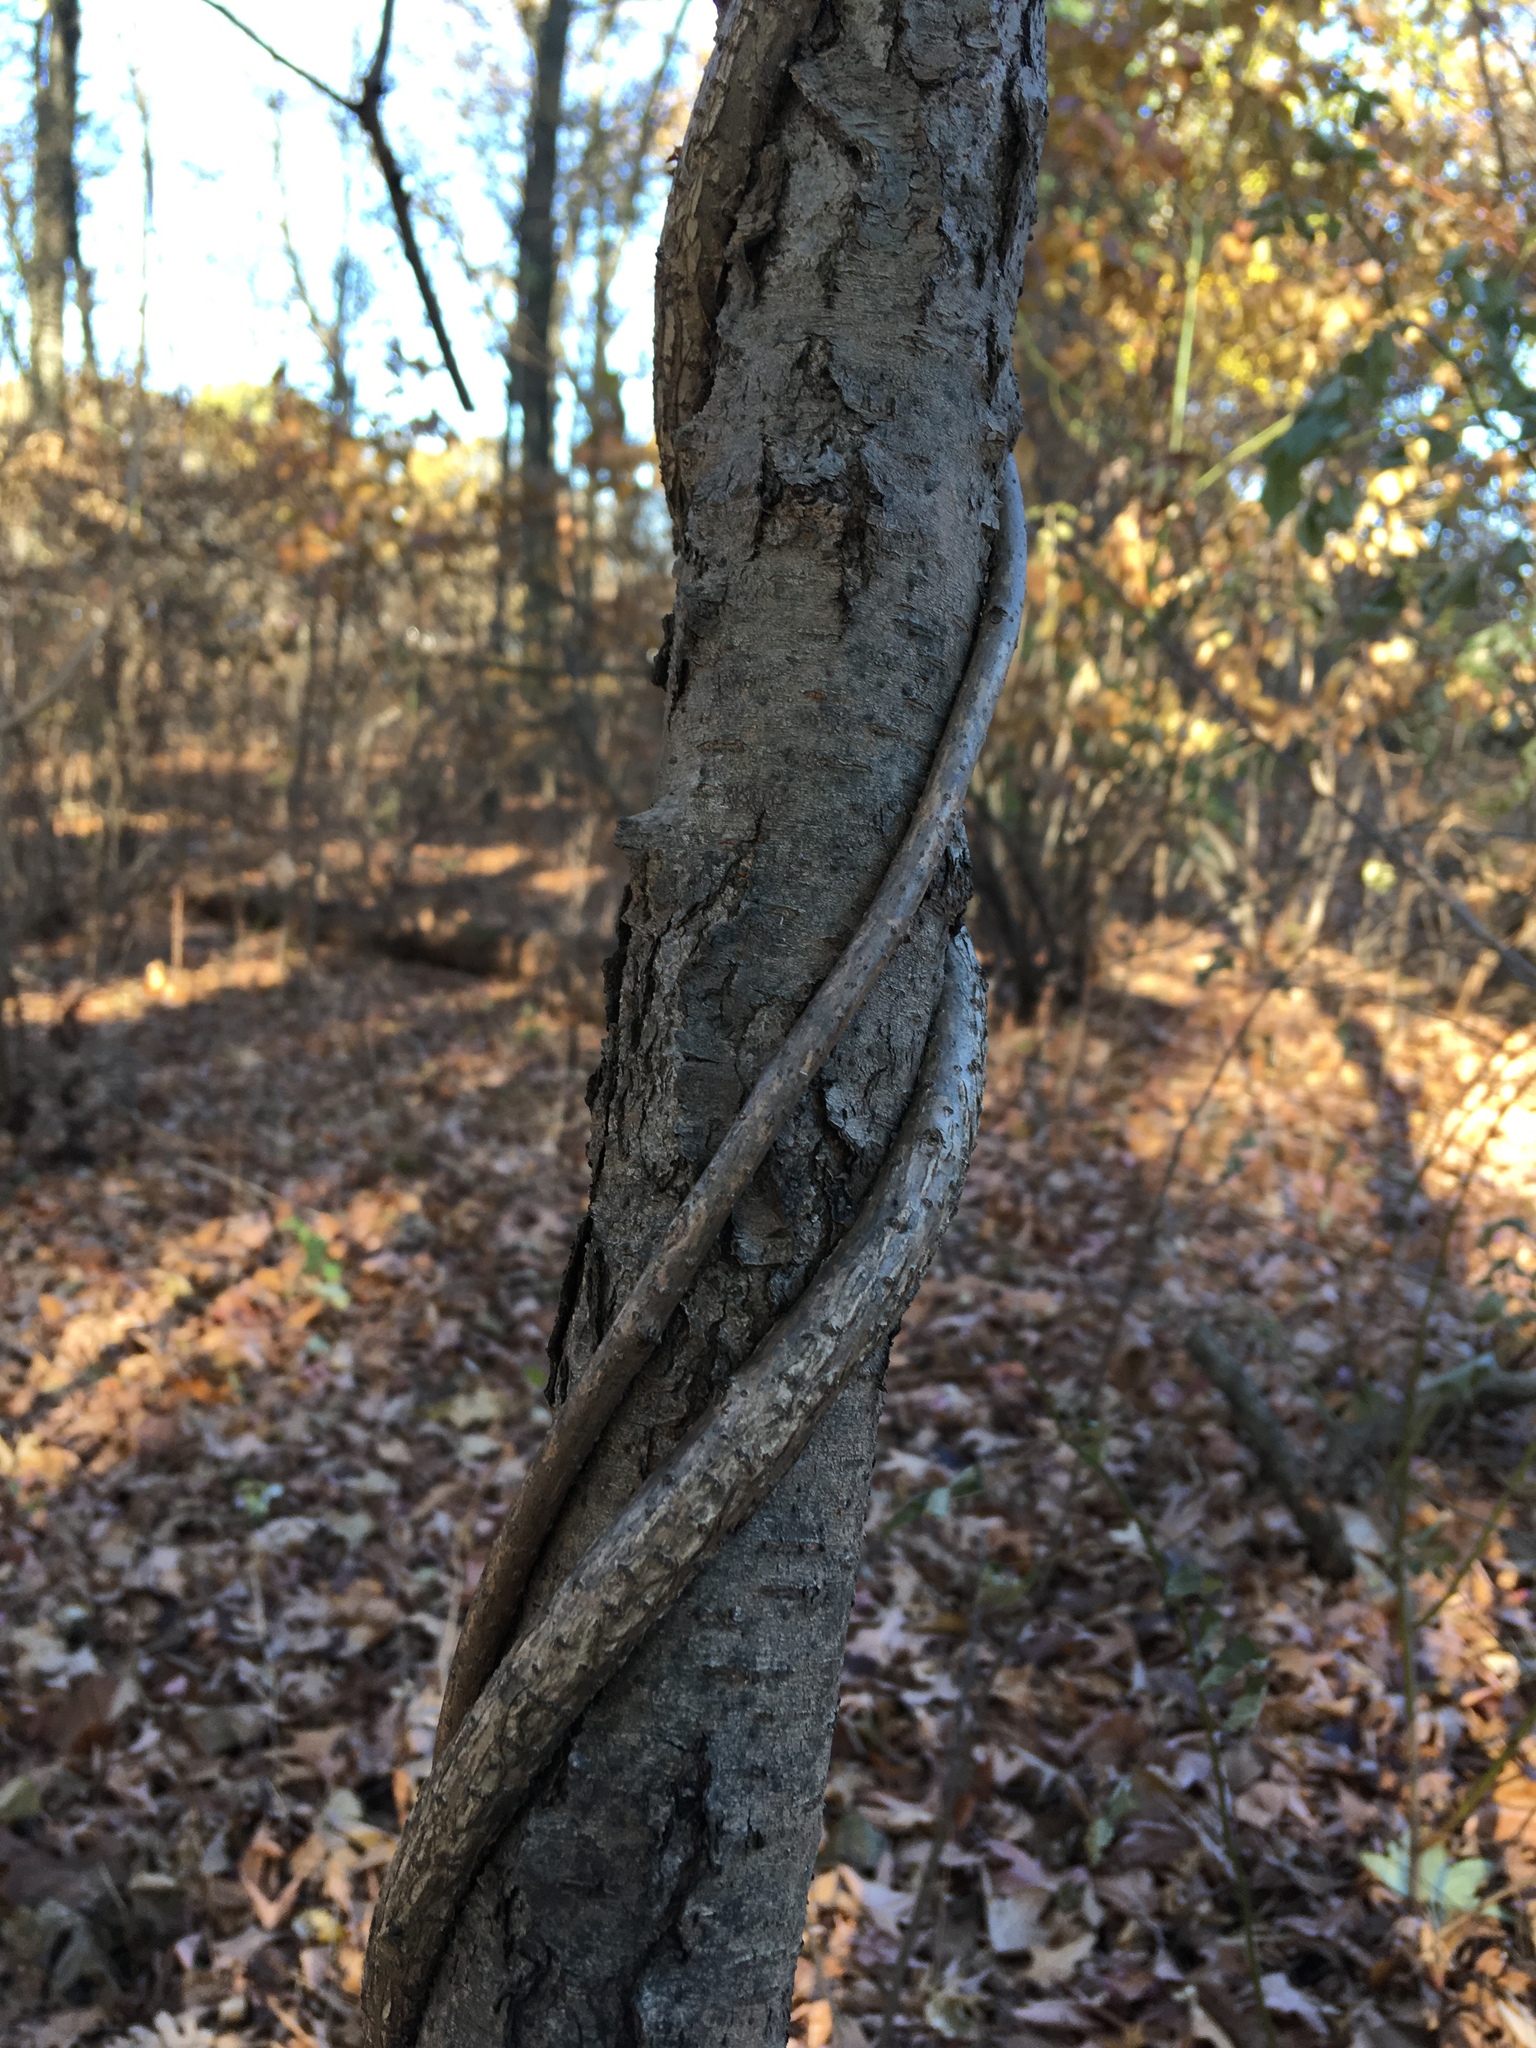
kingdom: Plantae
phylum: Tracheophyta
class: Magnoliopsida
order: Celastrales
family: Celastraceae
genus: Celastrus
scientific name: Celastrus orbiculatus
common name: Oriental bittersweet
